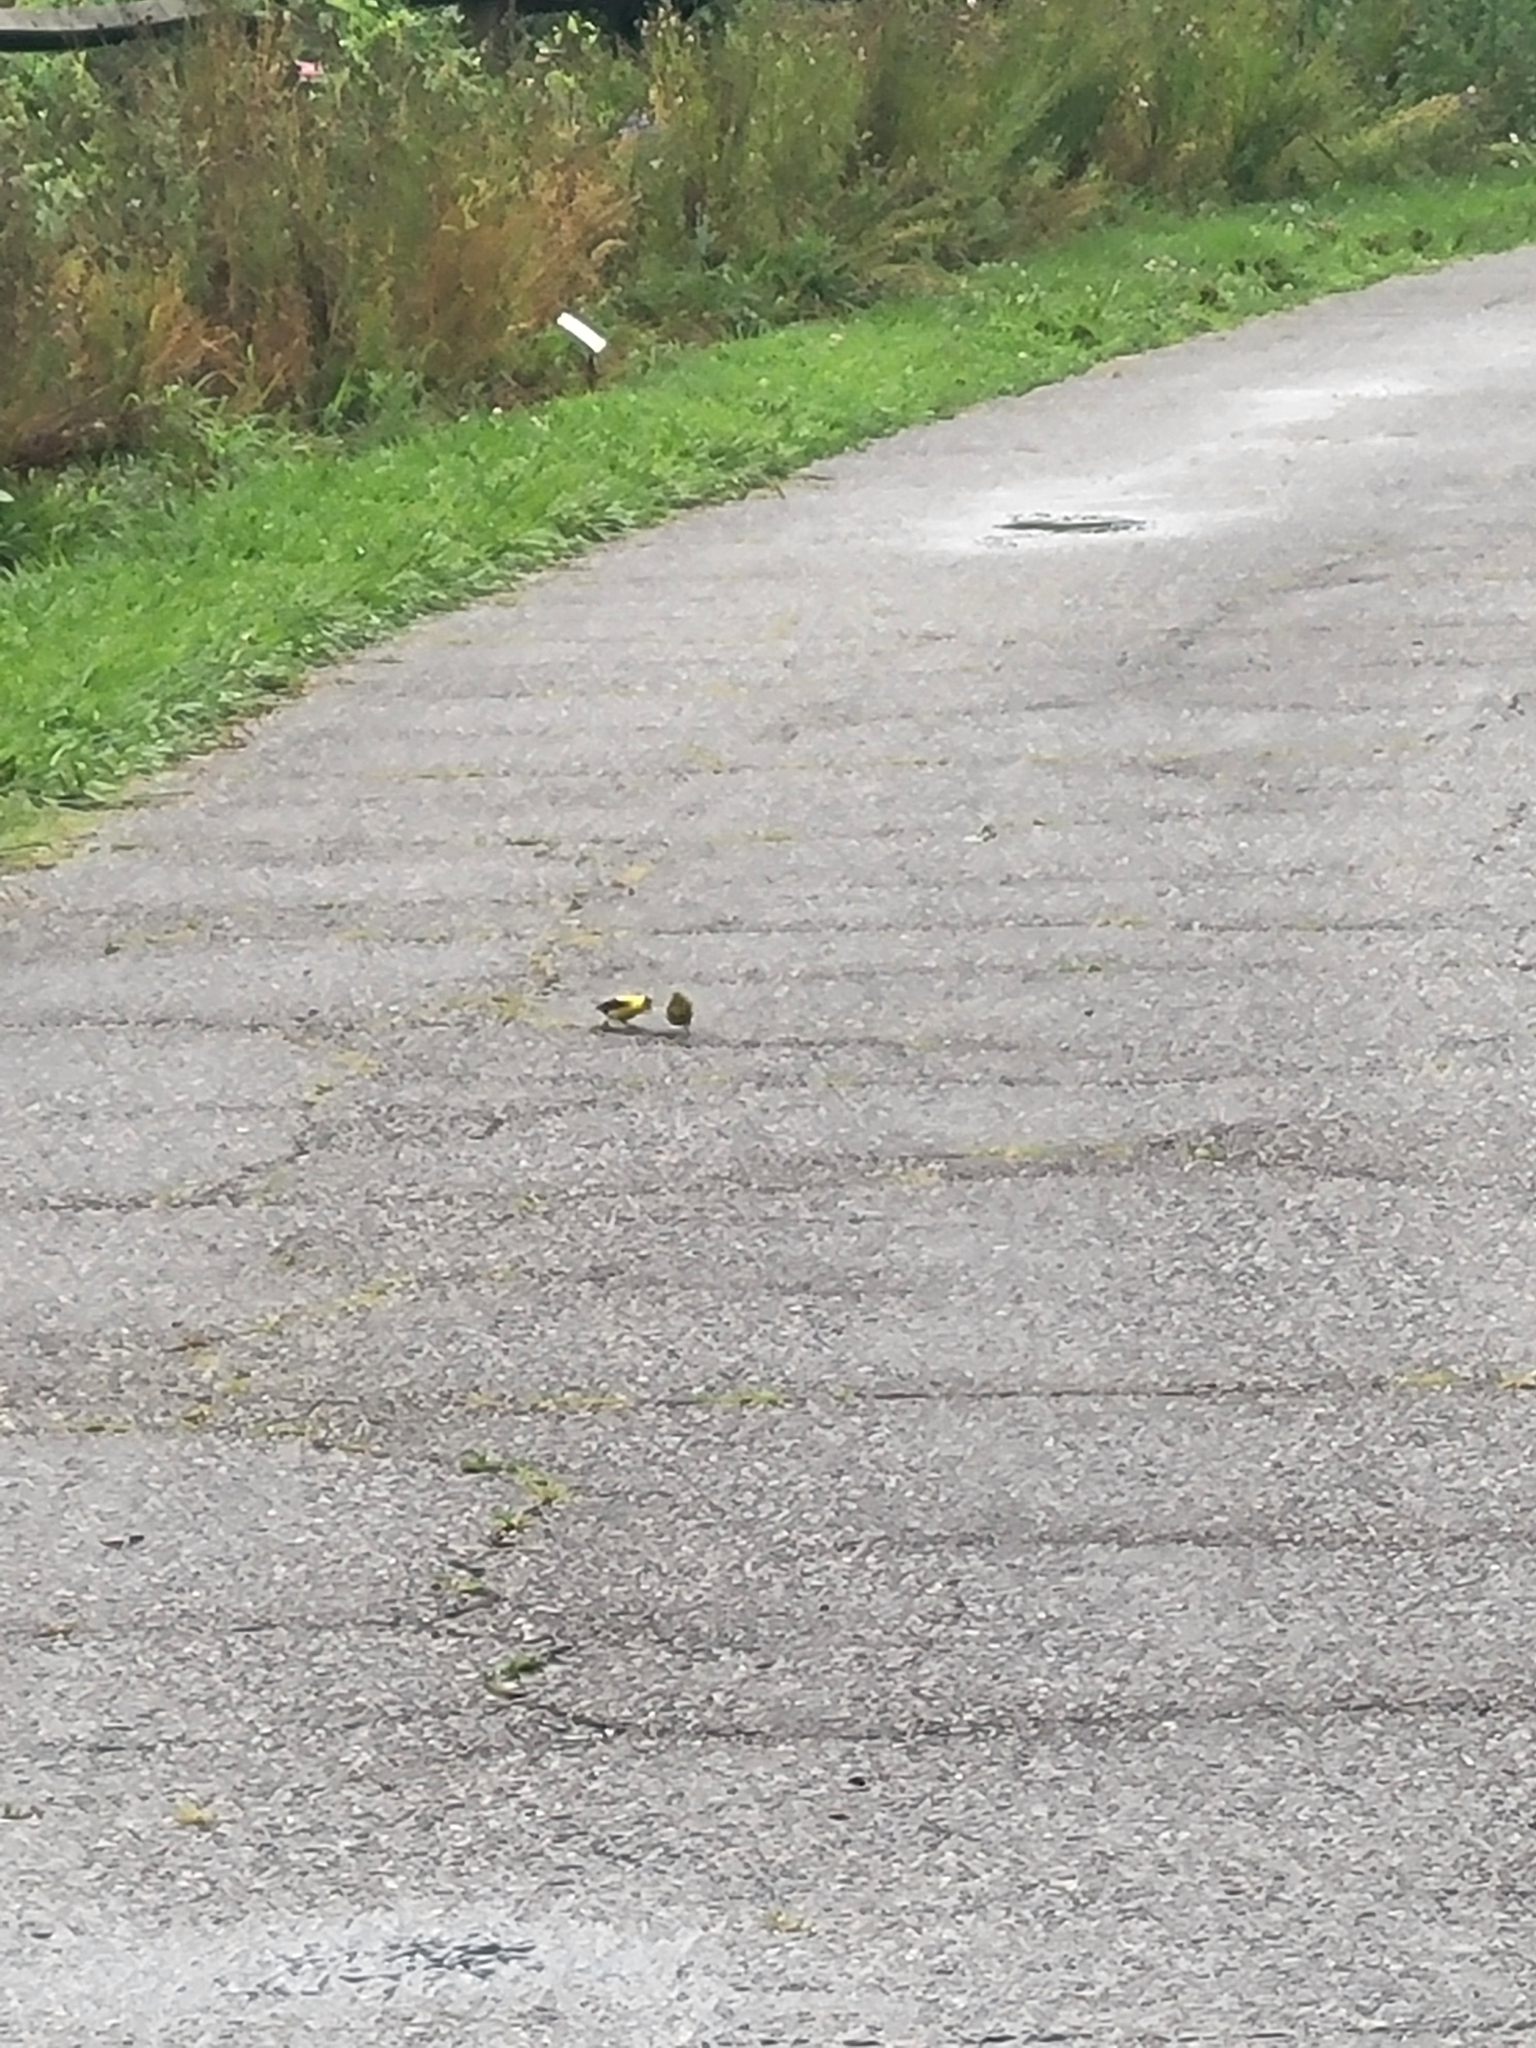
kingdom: Animalia
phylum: Chordata
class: Aves
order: Passeriformes
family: Fringillidae
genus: Spinus
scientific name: Spinus tristis
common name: American goldfinch
